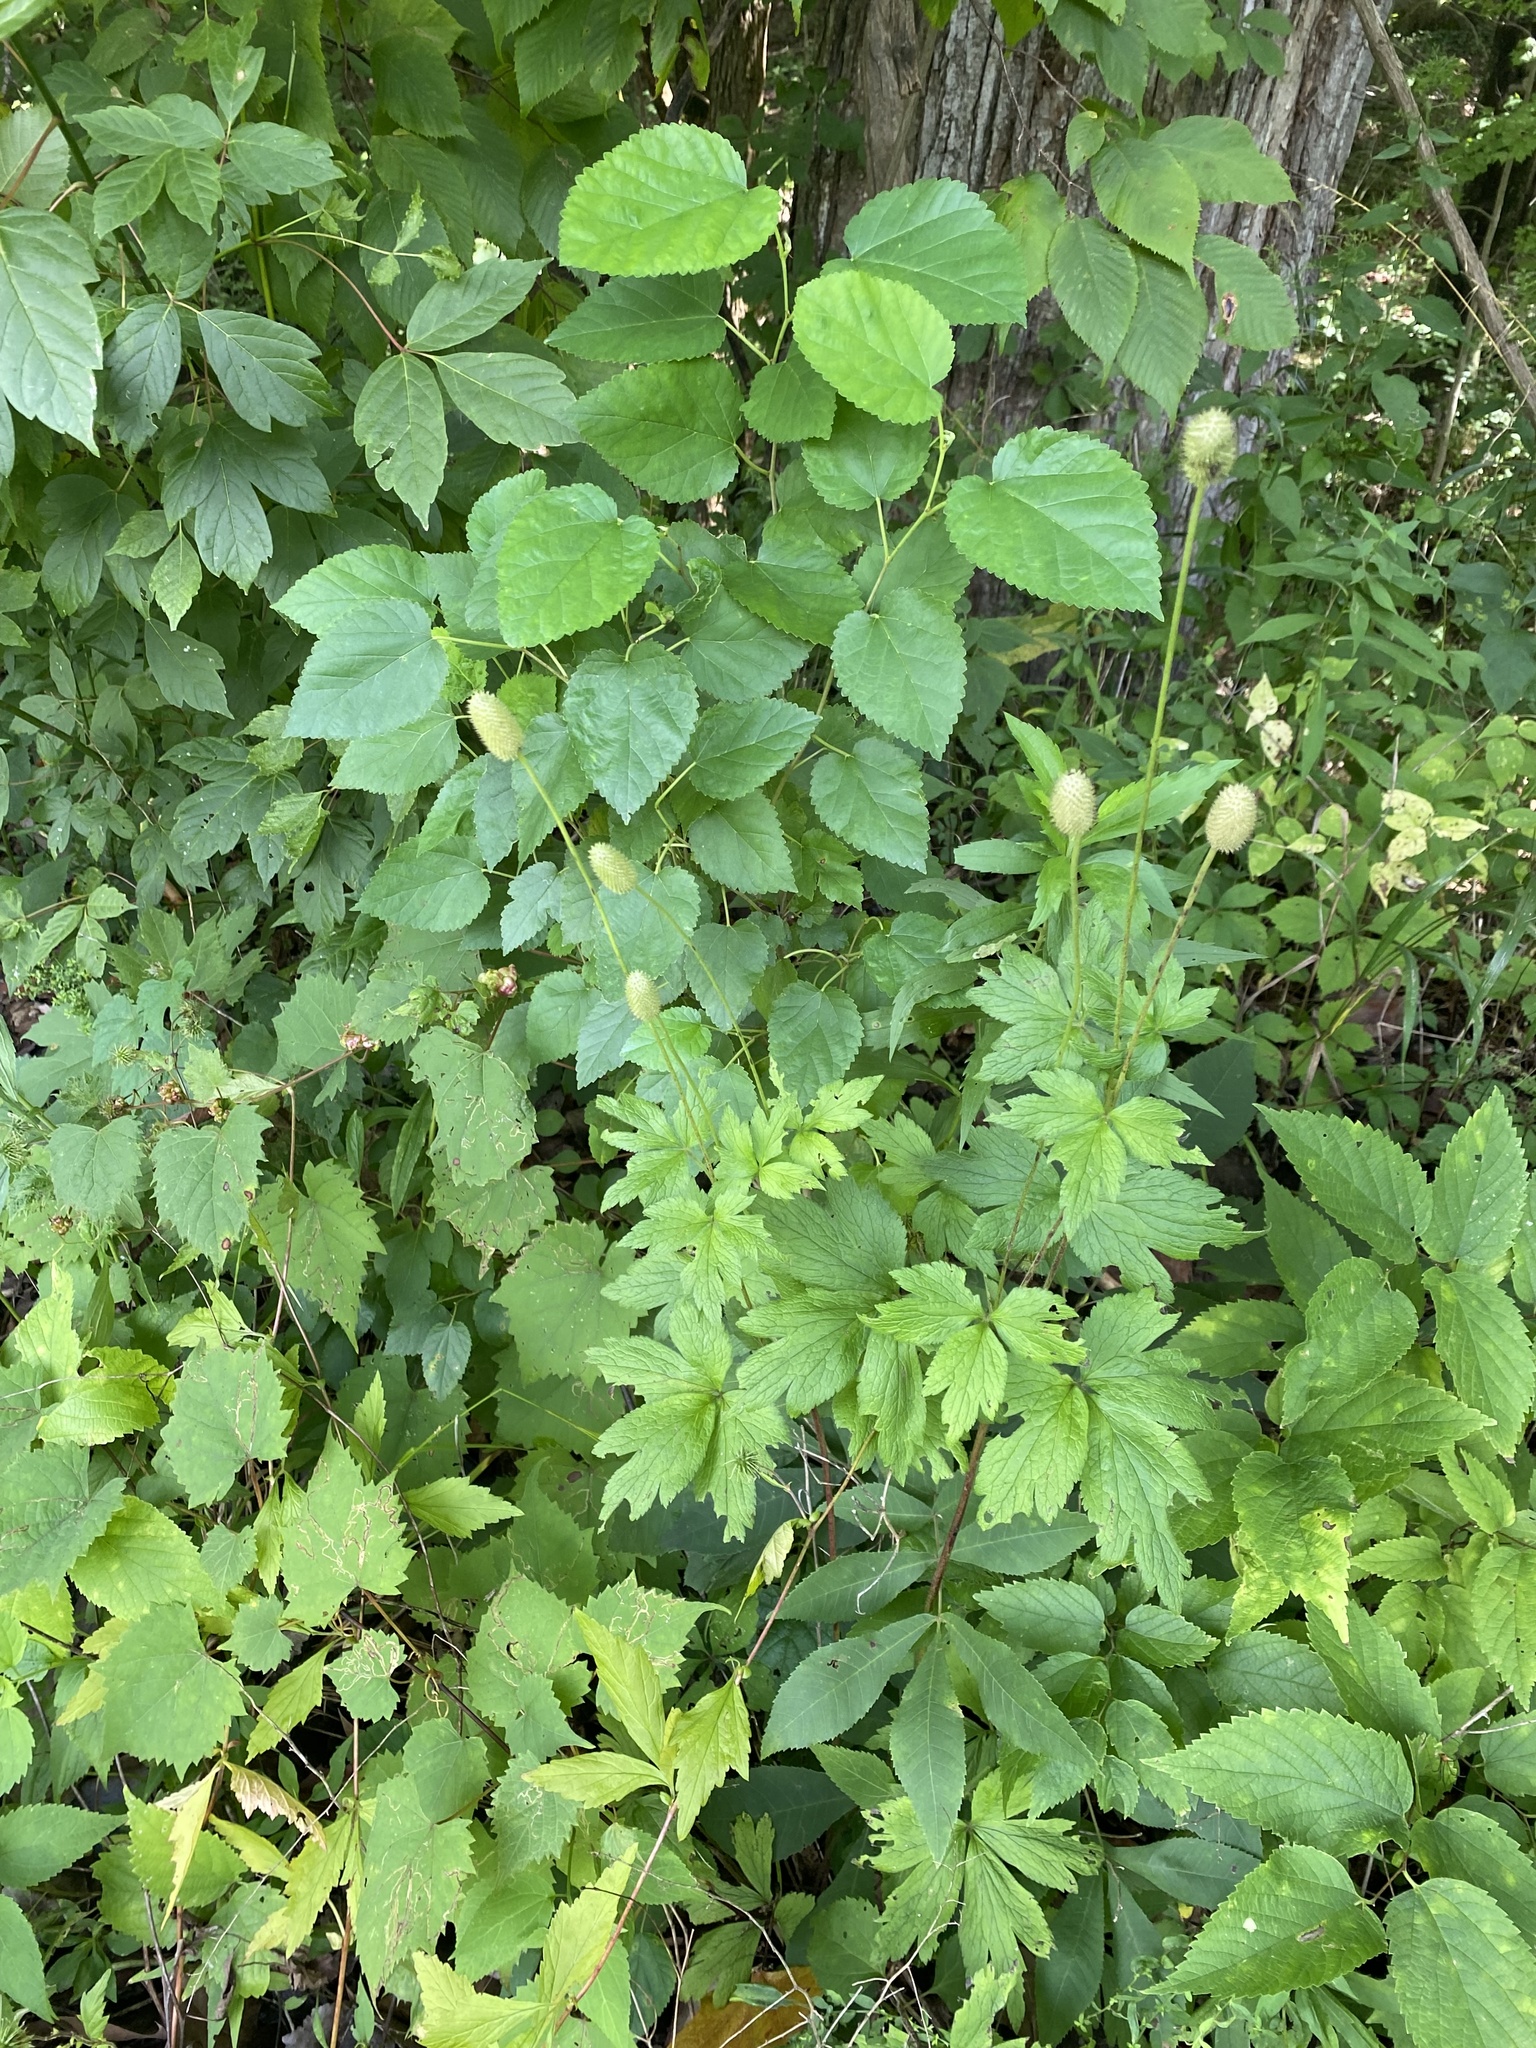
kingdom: Plantae
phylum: Tracheophyta
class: Magnoliopsida
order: Ranunculales
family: Ranunculaceae
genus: Anemone
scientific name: Anemone virginiana
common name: Tall anemone
